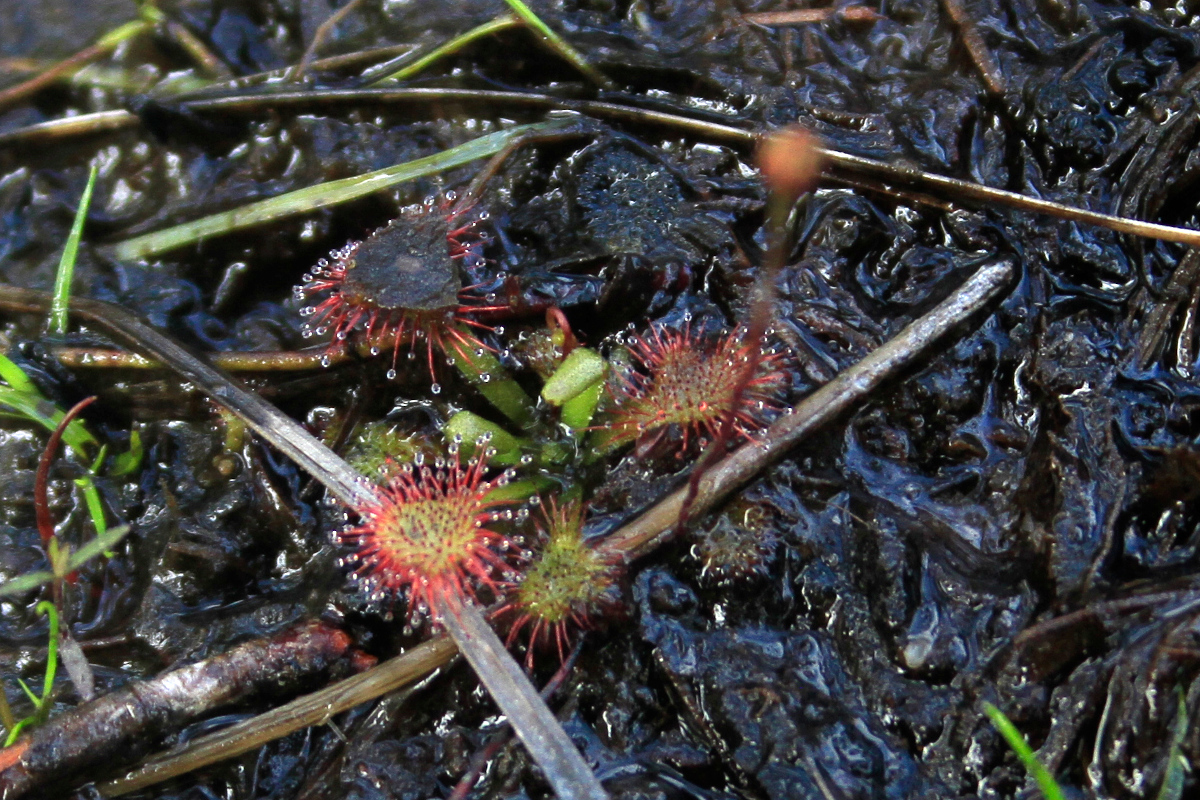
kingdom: Plantae
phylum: Tracheophyta
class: Magnoliopsida
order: Caryophyllales
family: Droseraceae
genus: Drosera
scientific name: Drosera capillaris
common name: Pink sundew
